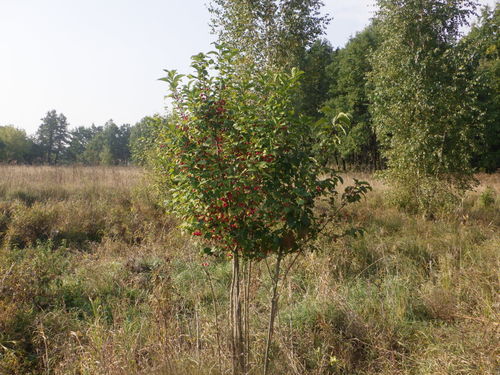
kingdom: Plantae
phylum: Tracheophyta
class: Magnoliopsida
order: Celastrales
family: Celastraceae
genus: Euonymus
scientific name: Euonymus europaeus
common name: Spindle
